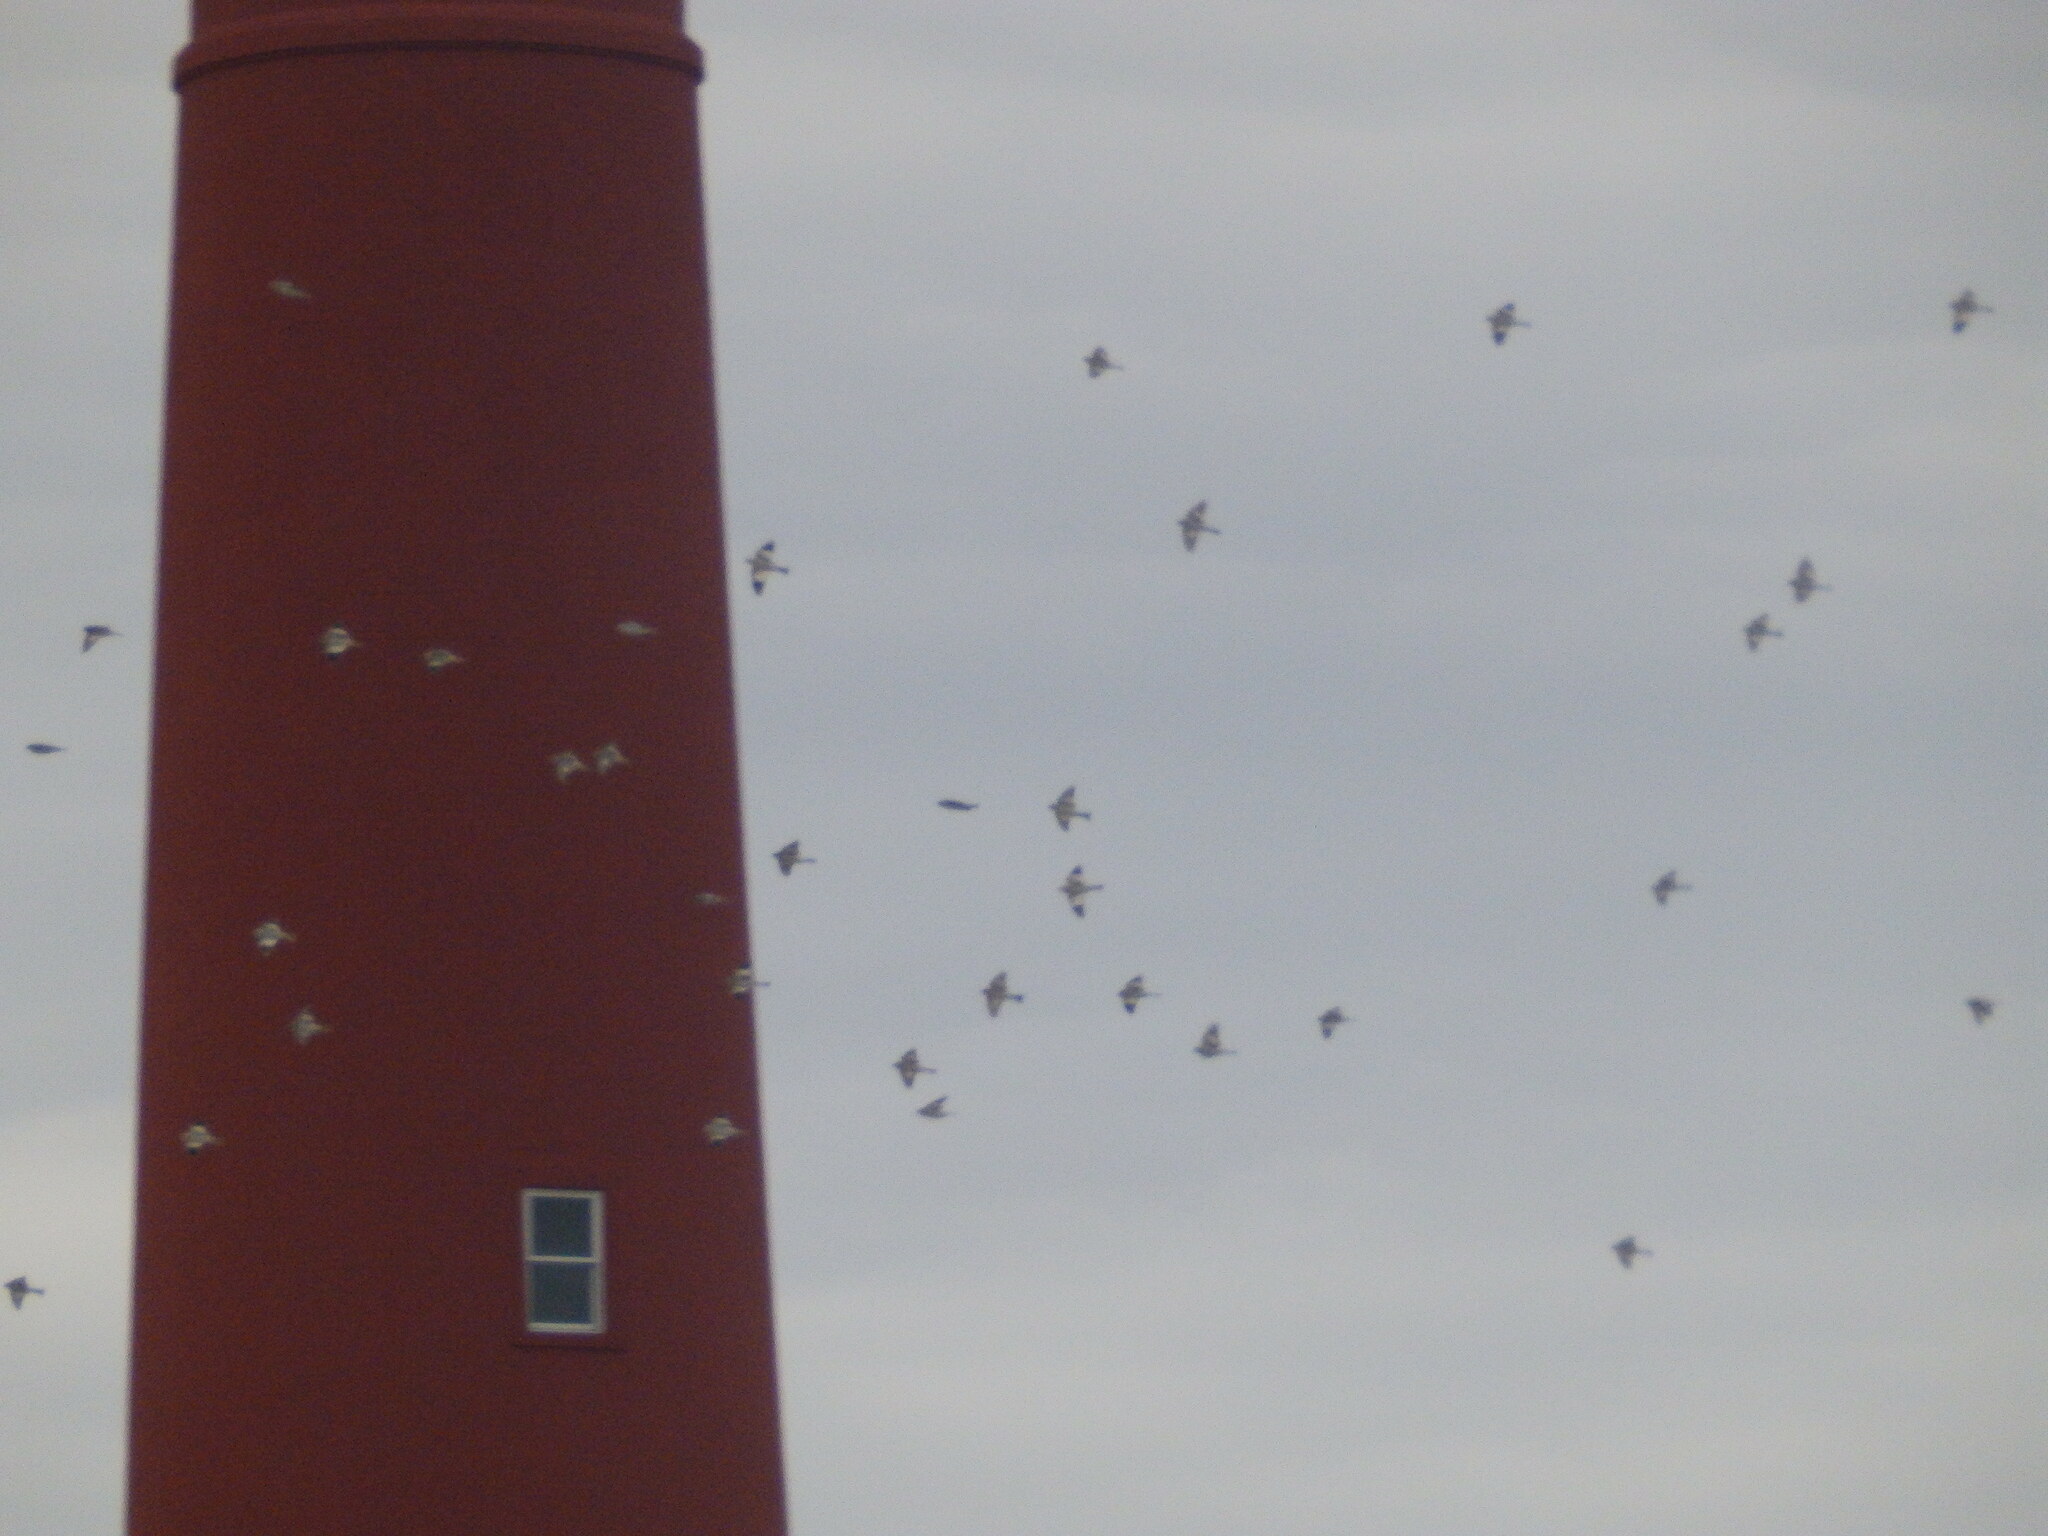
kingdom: Animalia
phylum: Chordata
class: Aves
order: Passeriformes
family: Calcariidae
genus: Plectrophenax
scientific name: Plectrophenax nivalis
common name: Snow bunting
